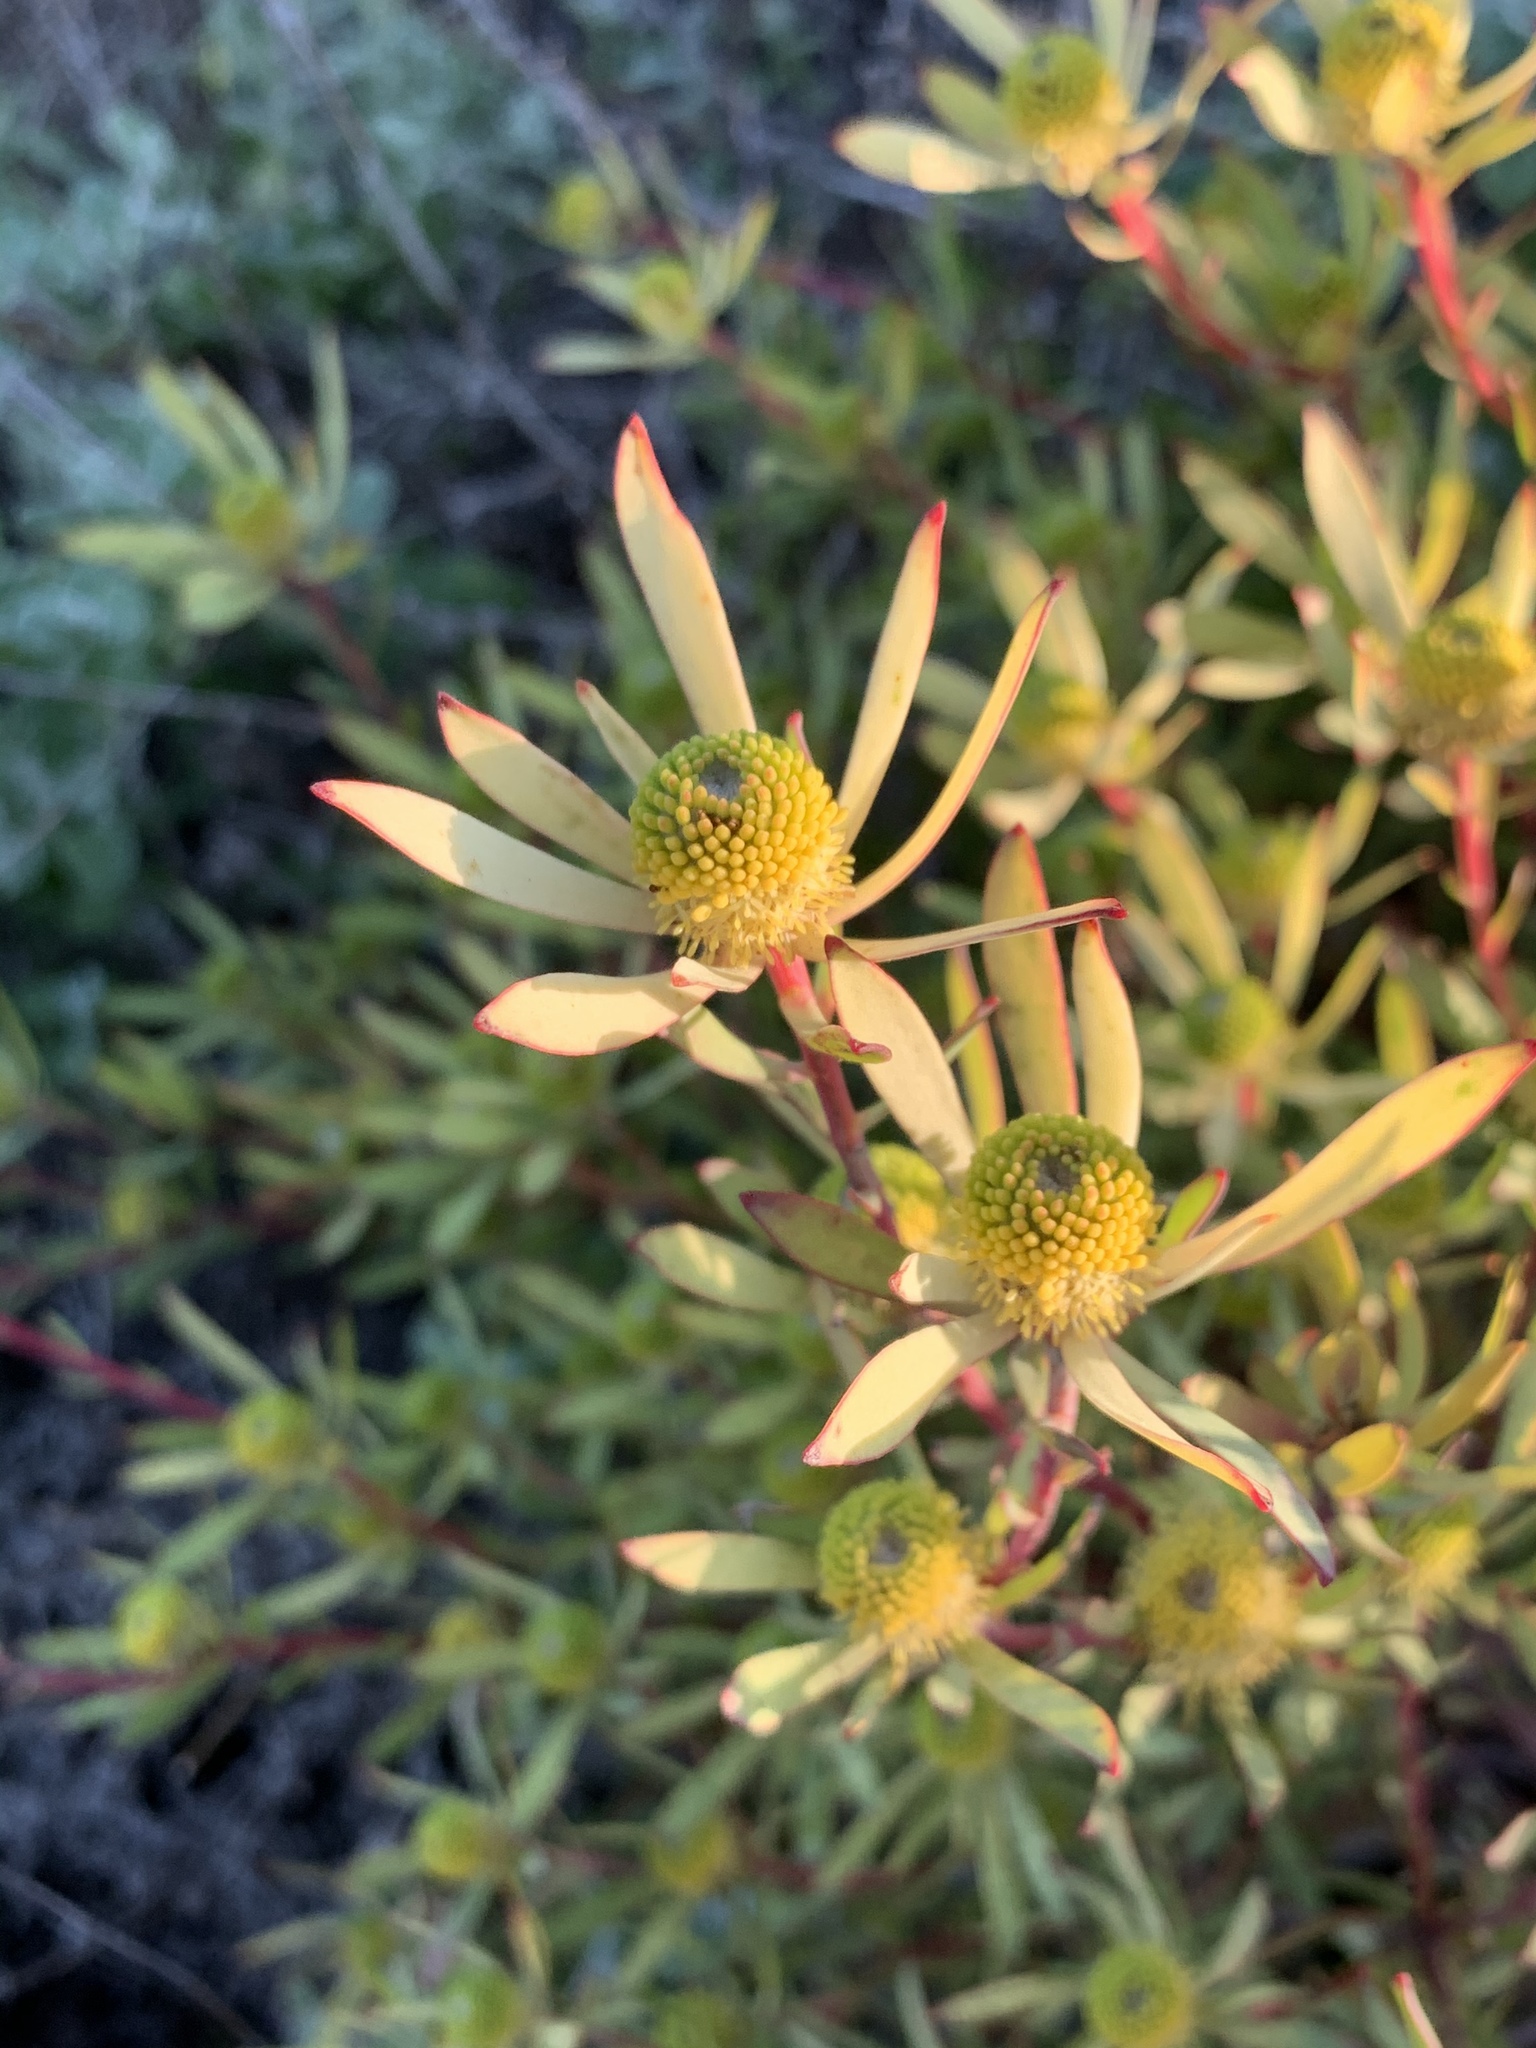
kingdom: Plantae
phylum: Tracheophyta
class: Magnoliopsida
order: Proteales
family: Proteaceae
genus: Leucadendron
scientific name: Leucadendron salignum
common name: Common sunshine conebush
